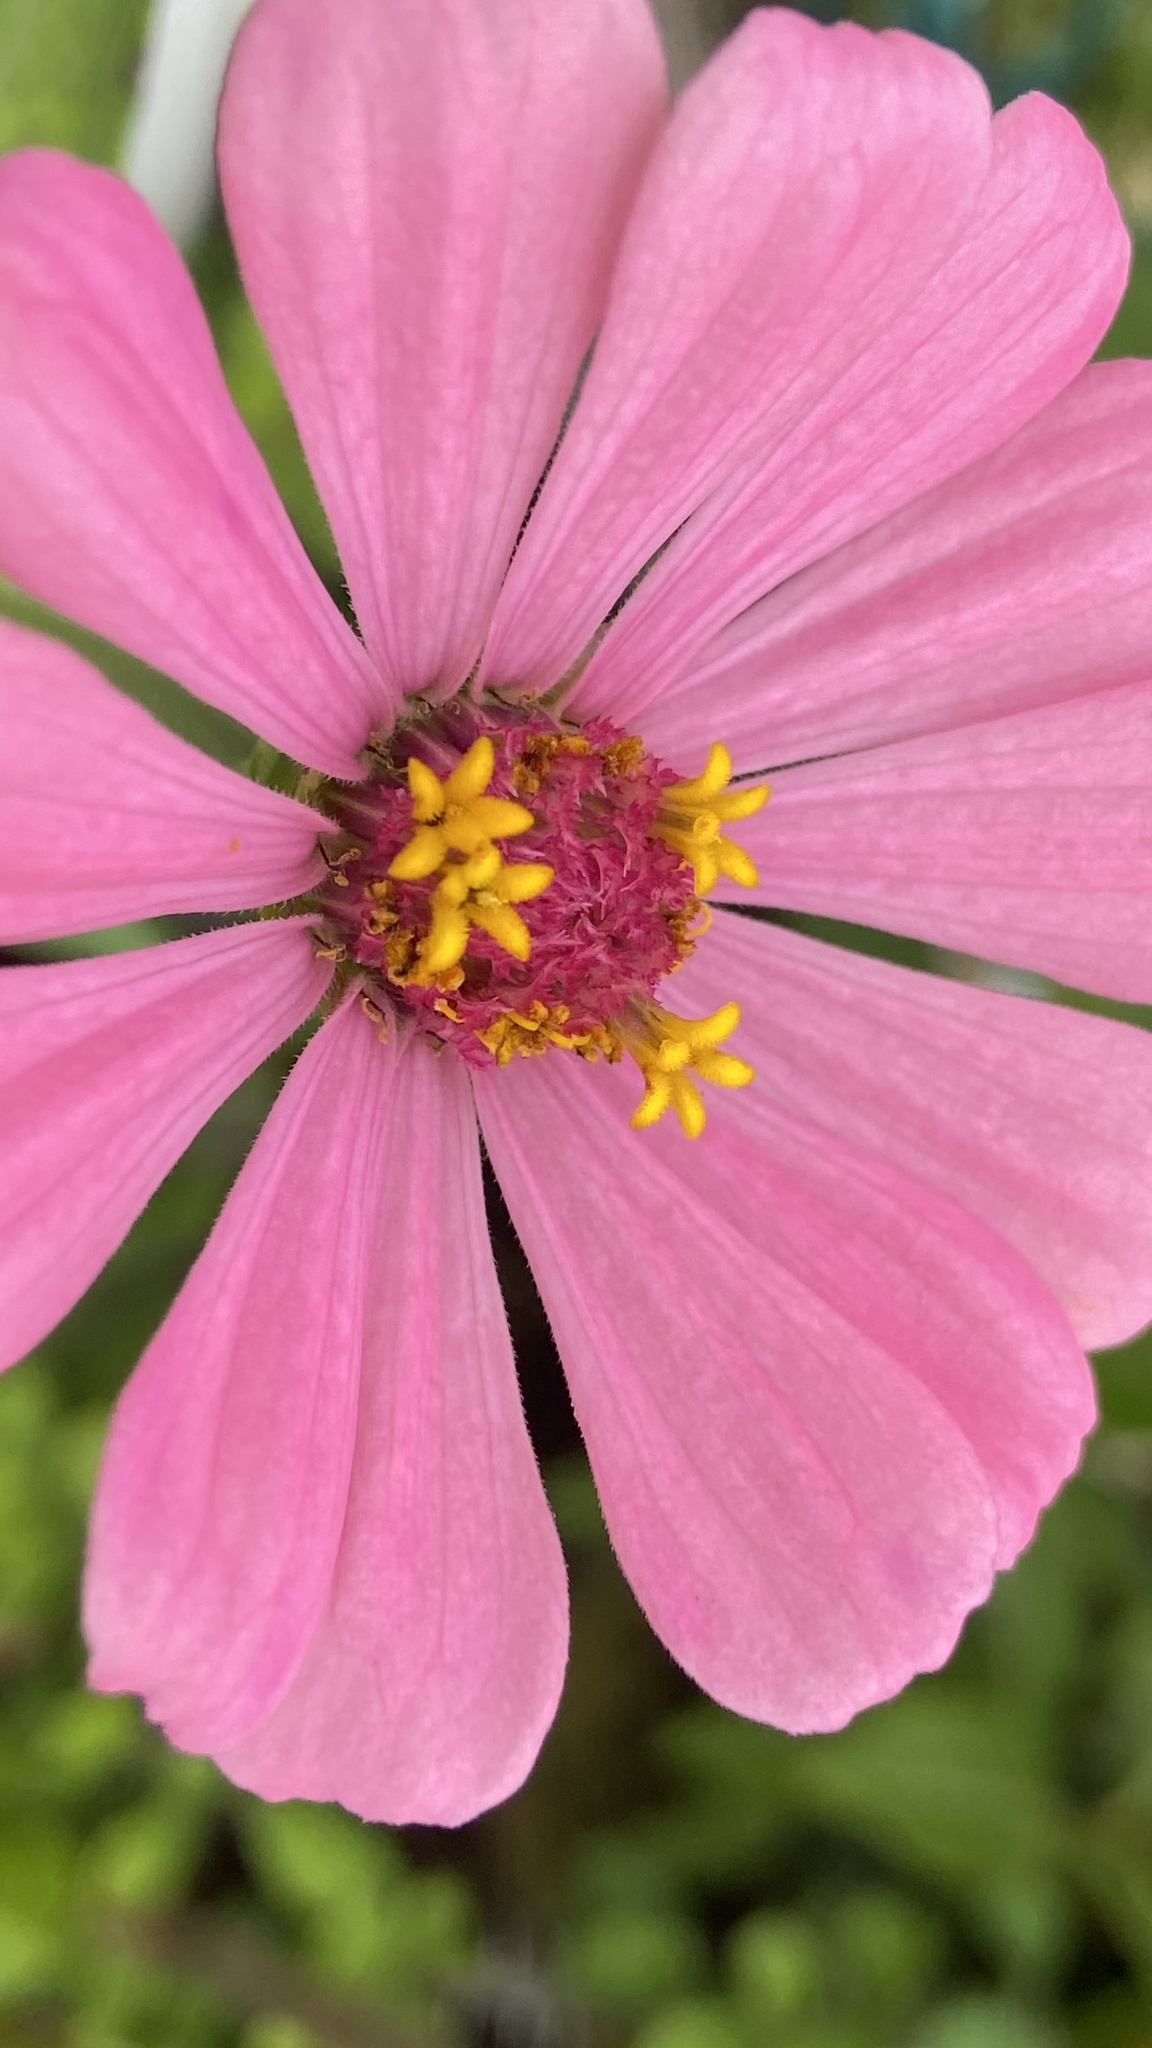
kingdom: Plantae
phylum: Tracheophyta
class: Magnoliopsida
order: Asterales
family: Asteraceae
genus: Zinnia
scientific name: Zinnia elegans
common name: Youth-and-age
